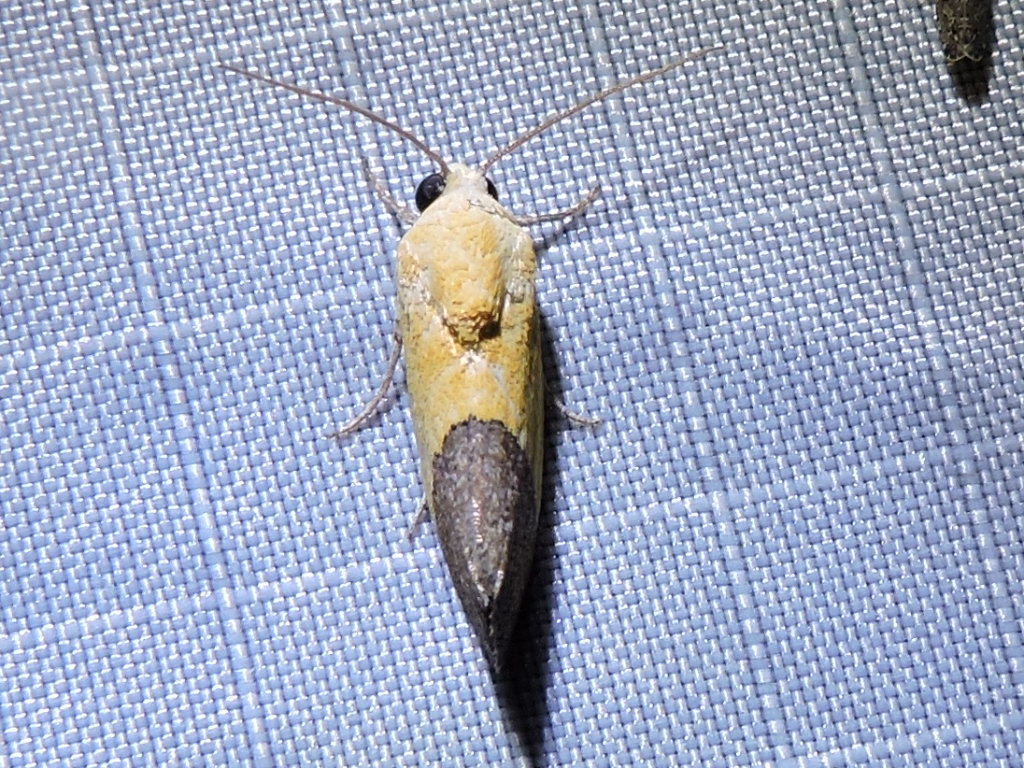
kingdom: Animalia
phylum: Arthropoda
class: Insecta
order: Lepidoptera
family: Noctuidae
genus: Acontia
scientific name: Acontia semiflava
